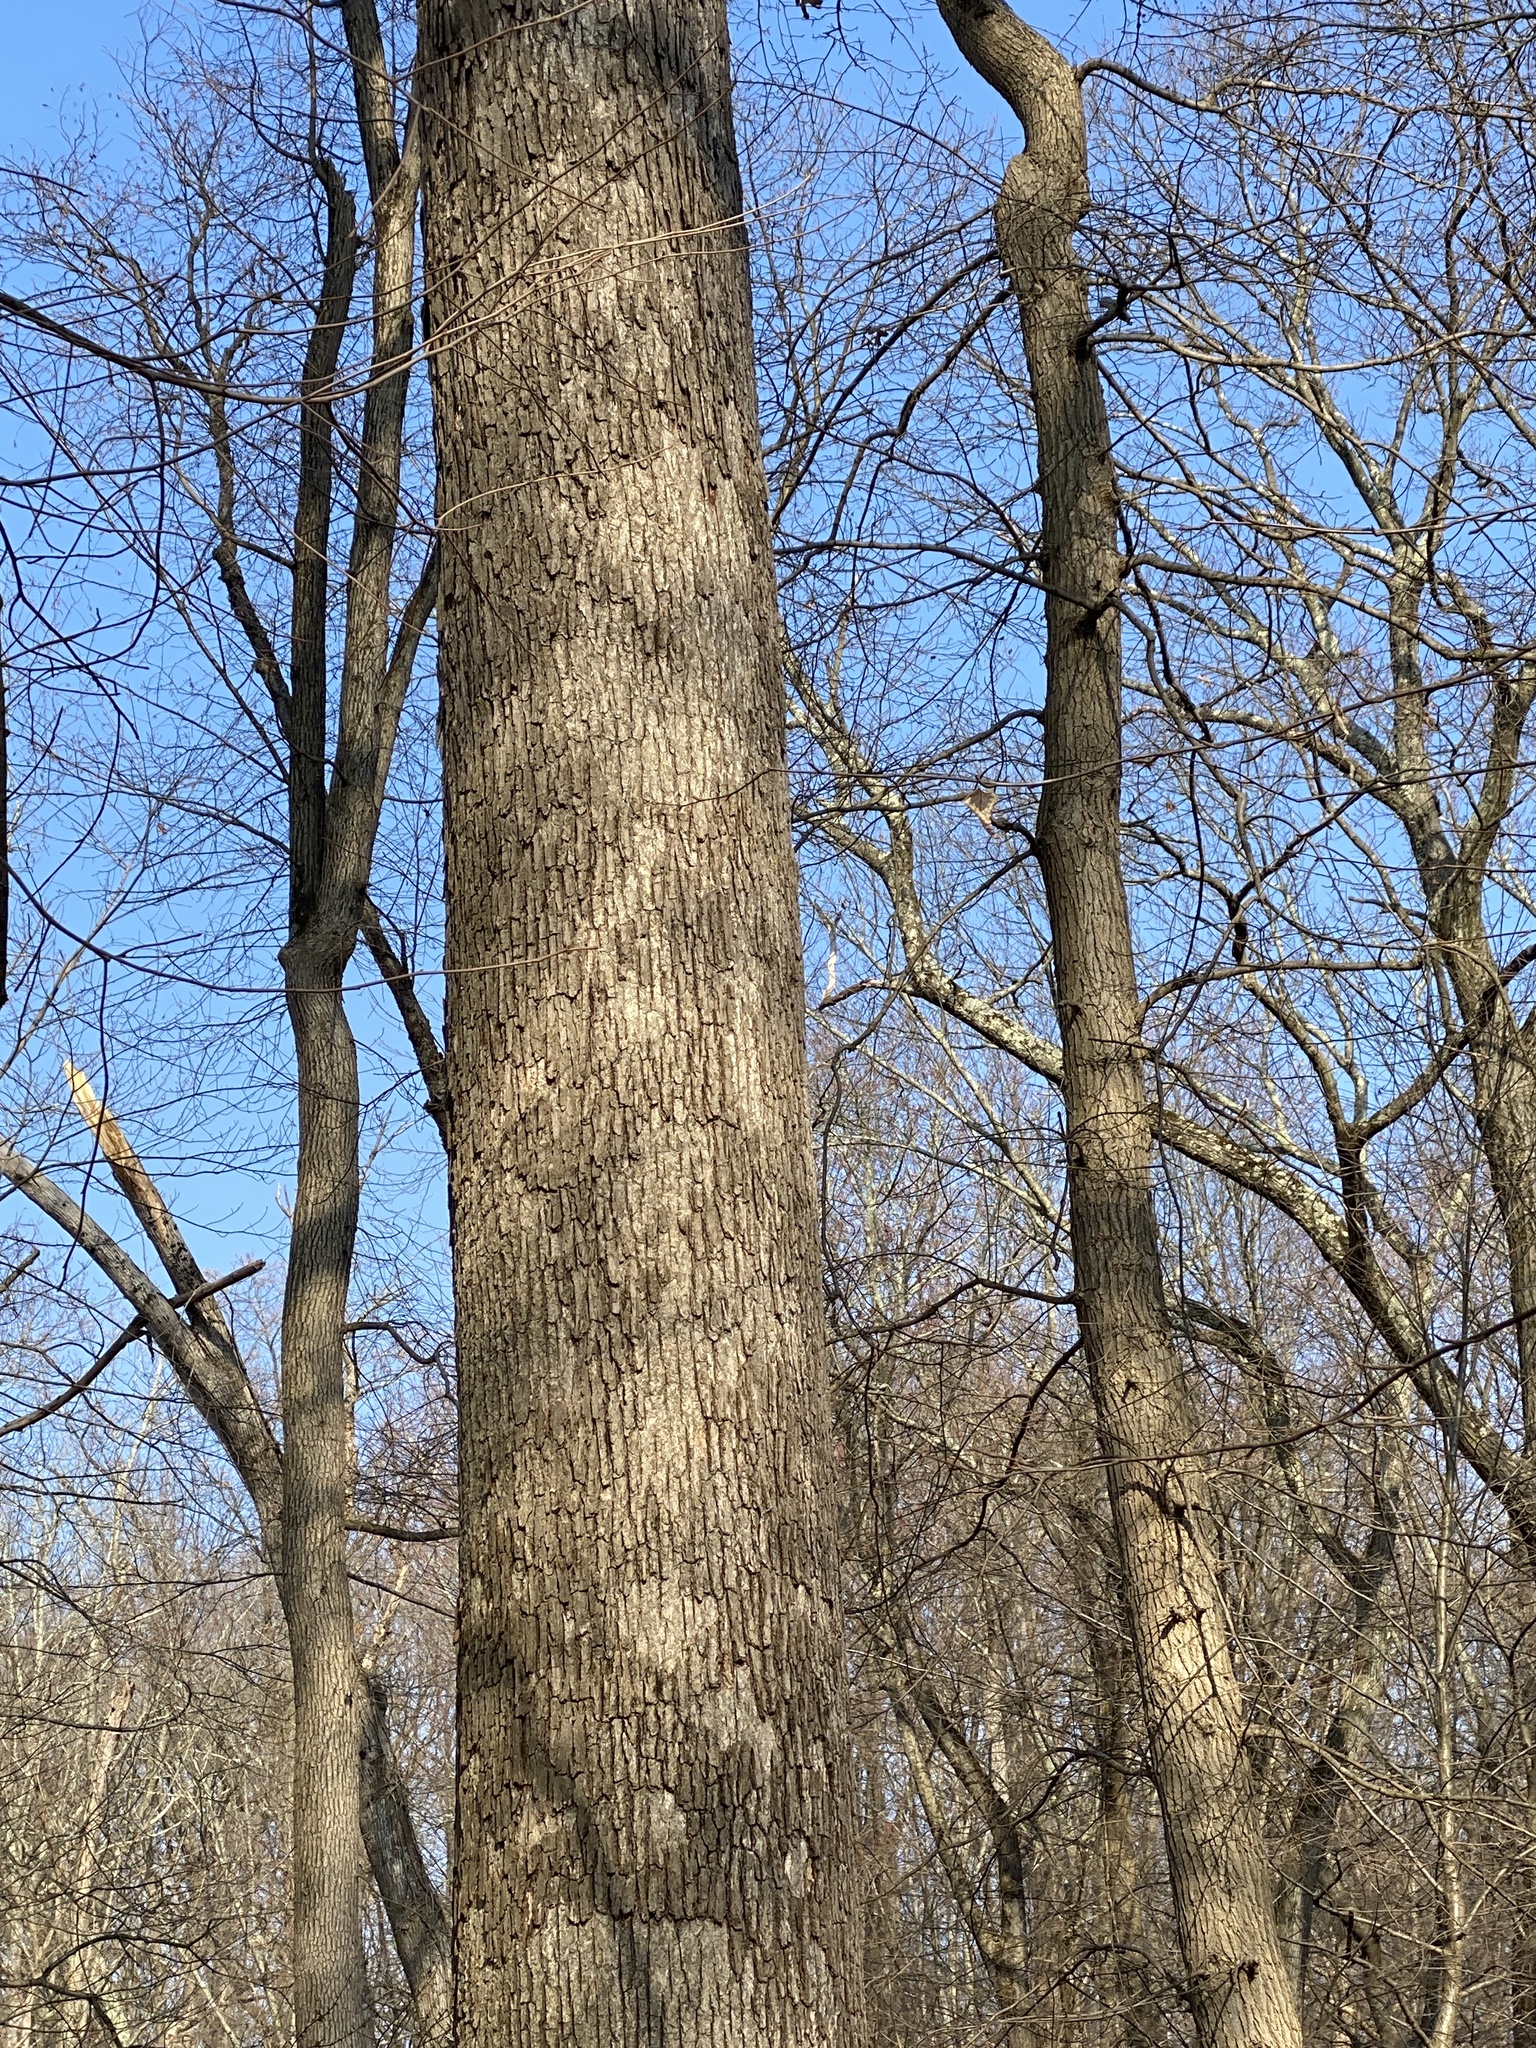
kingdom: Fungi
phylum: Basidiomycota
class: Agaricomycetes
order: Russulales
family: Stereaceae
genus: Acanthophysium
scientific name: Acanthophysium oakesii
